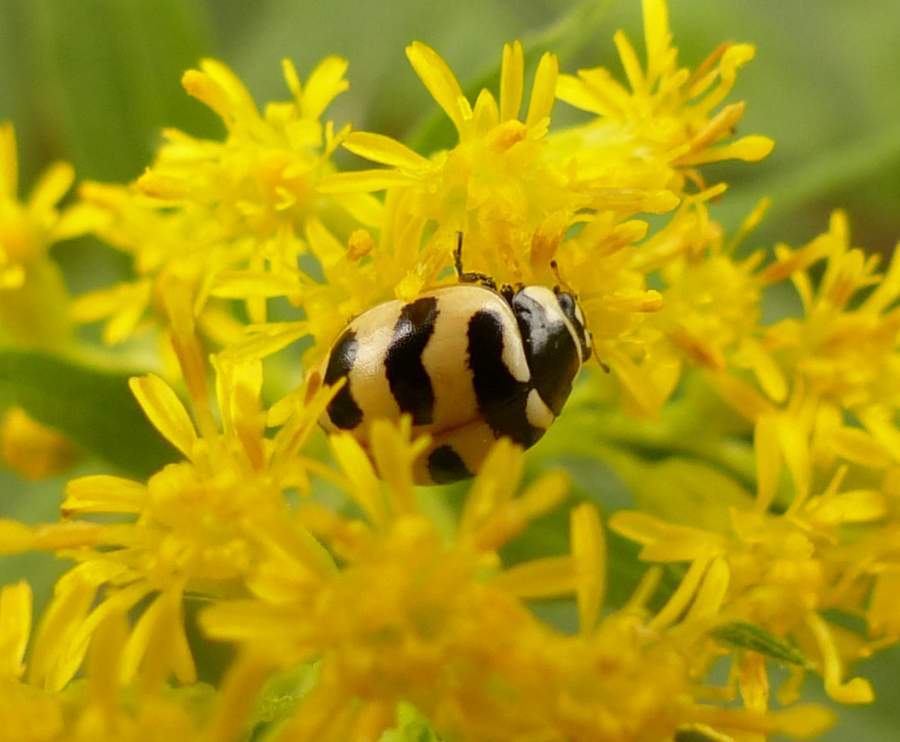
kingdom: Animalia
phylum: Arthropoda
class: Insecta
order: Coleoptera
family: Coccinellidae
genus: Coccinella
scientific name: Coccinella trifasciata
